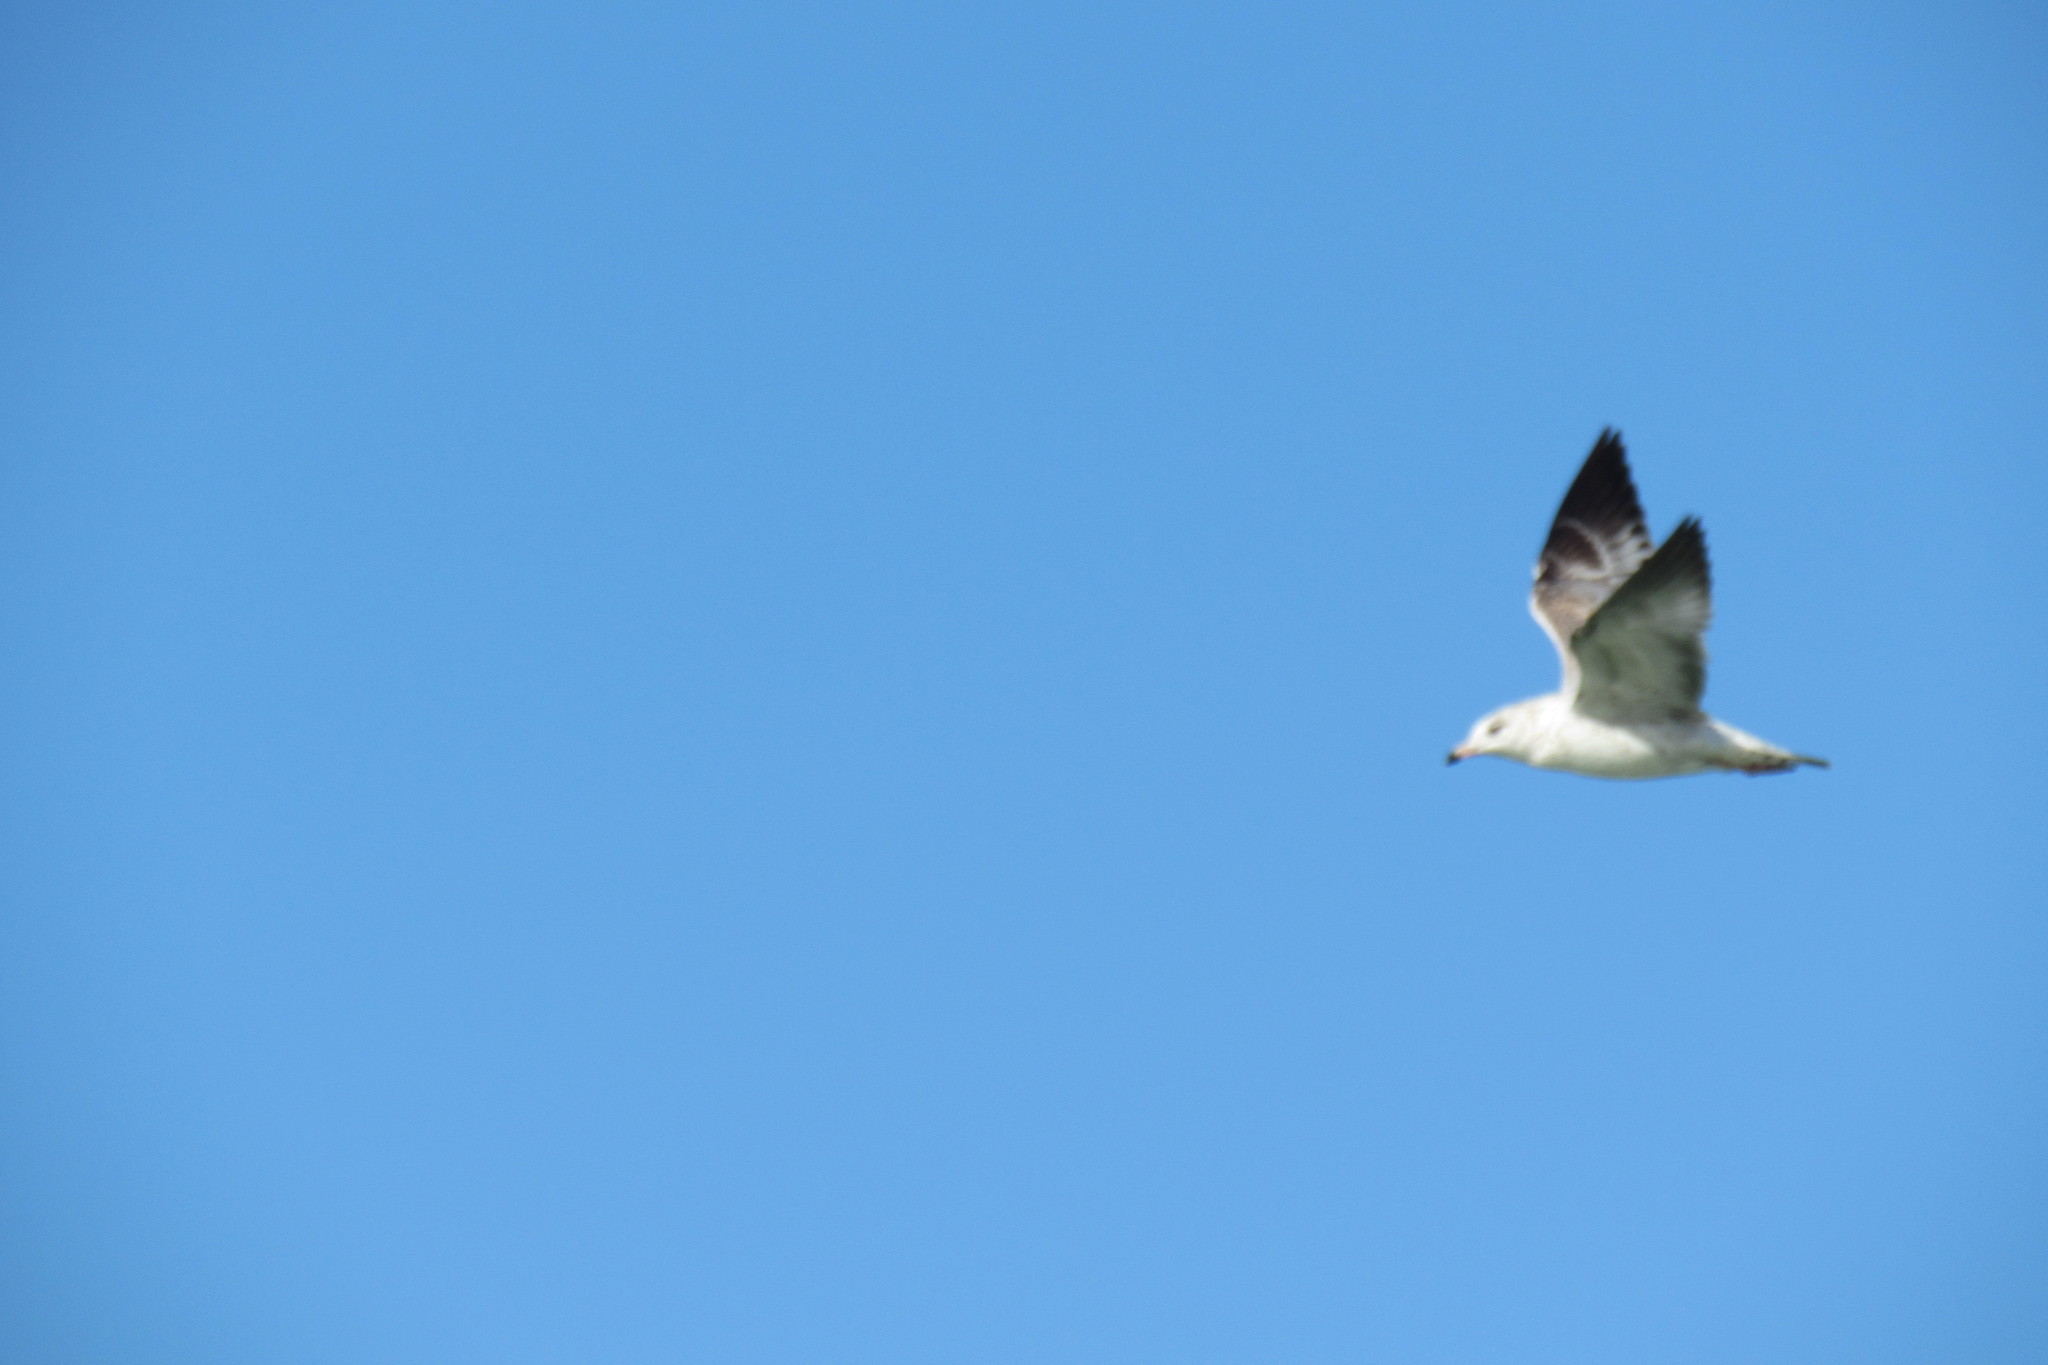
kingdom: Animalia
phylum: Chordata
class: Aves
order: Charadriiformes
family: Laridae
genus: Larus
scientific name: Larus delawarensis
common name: Ring-billed gull
